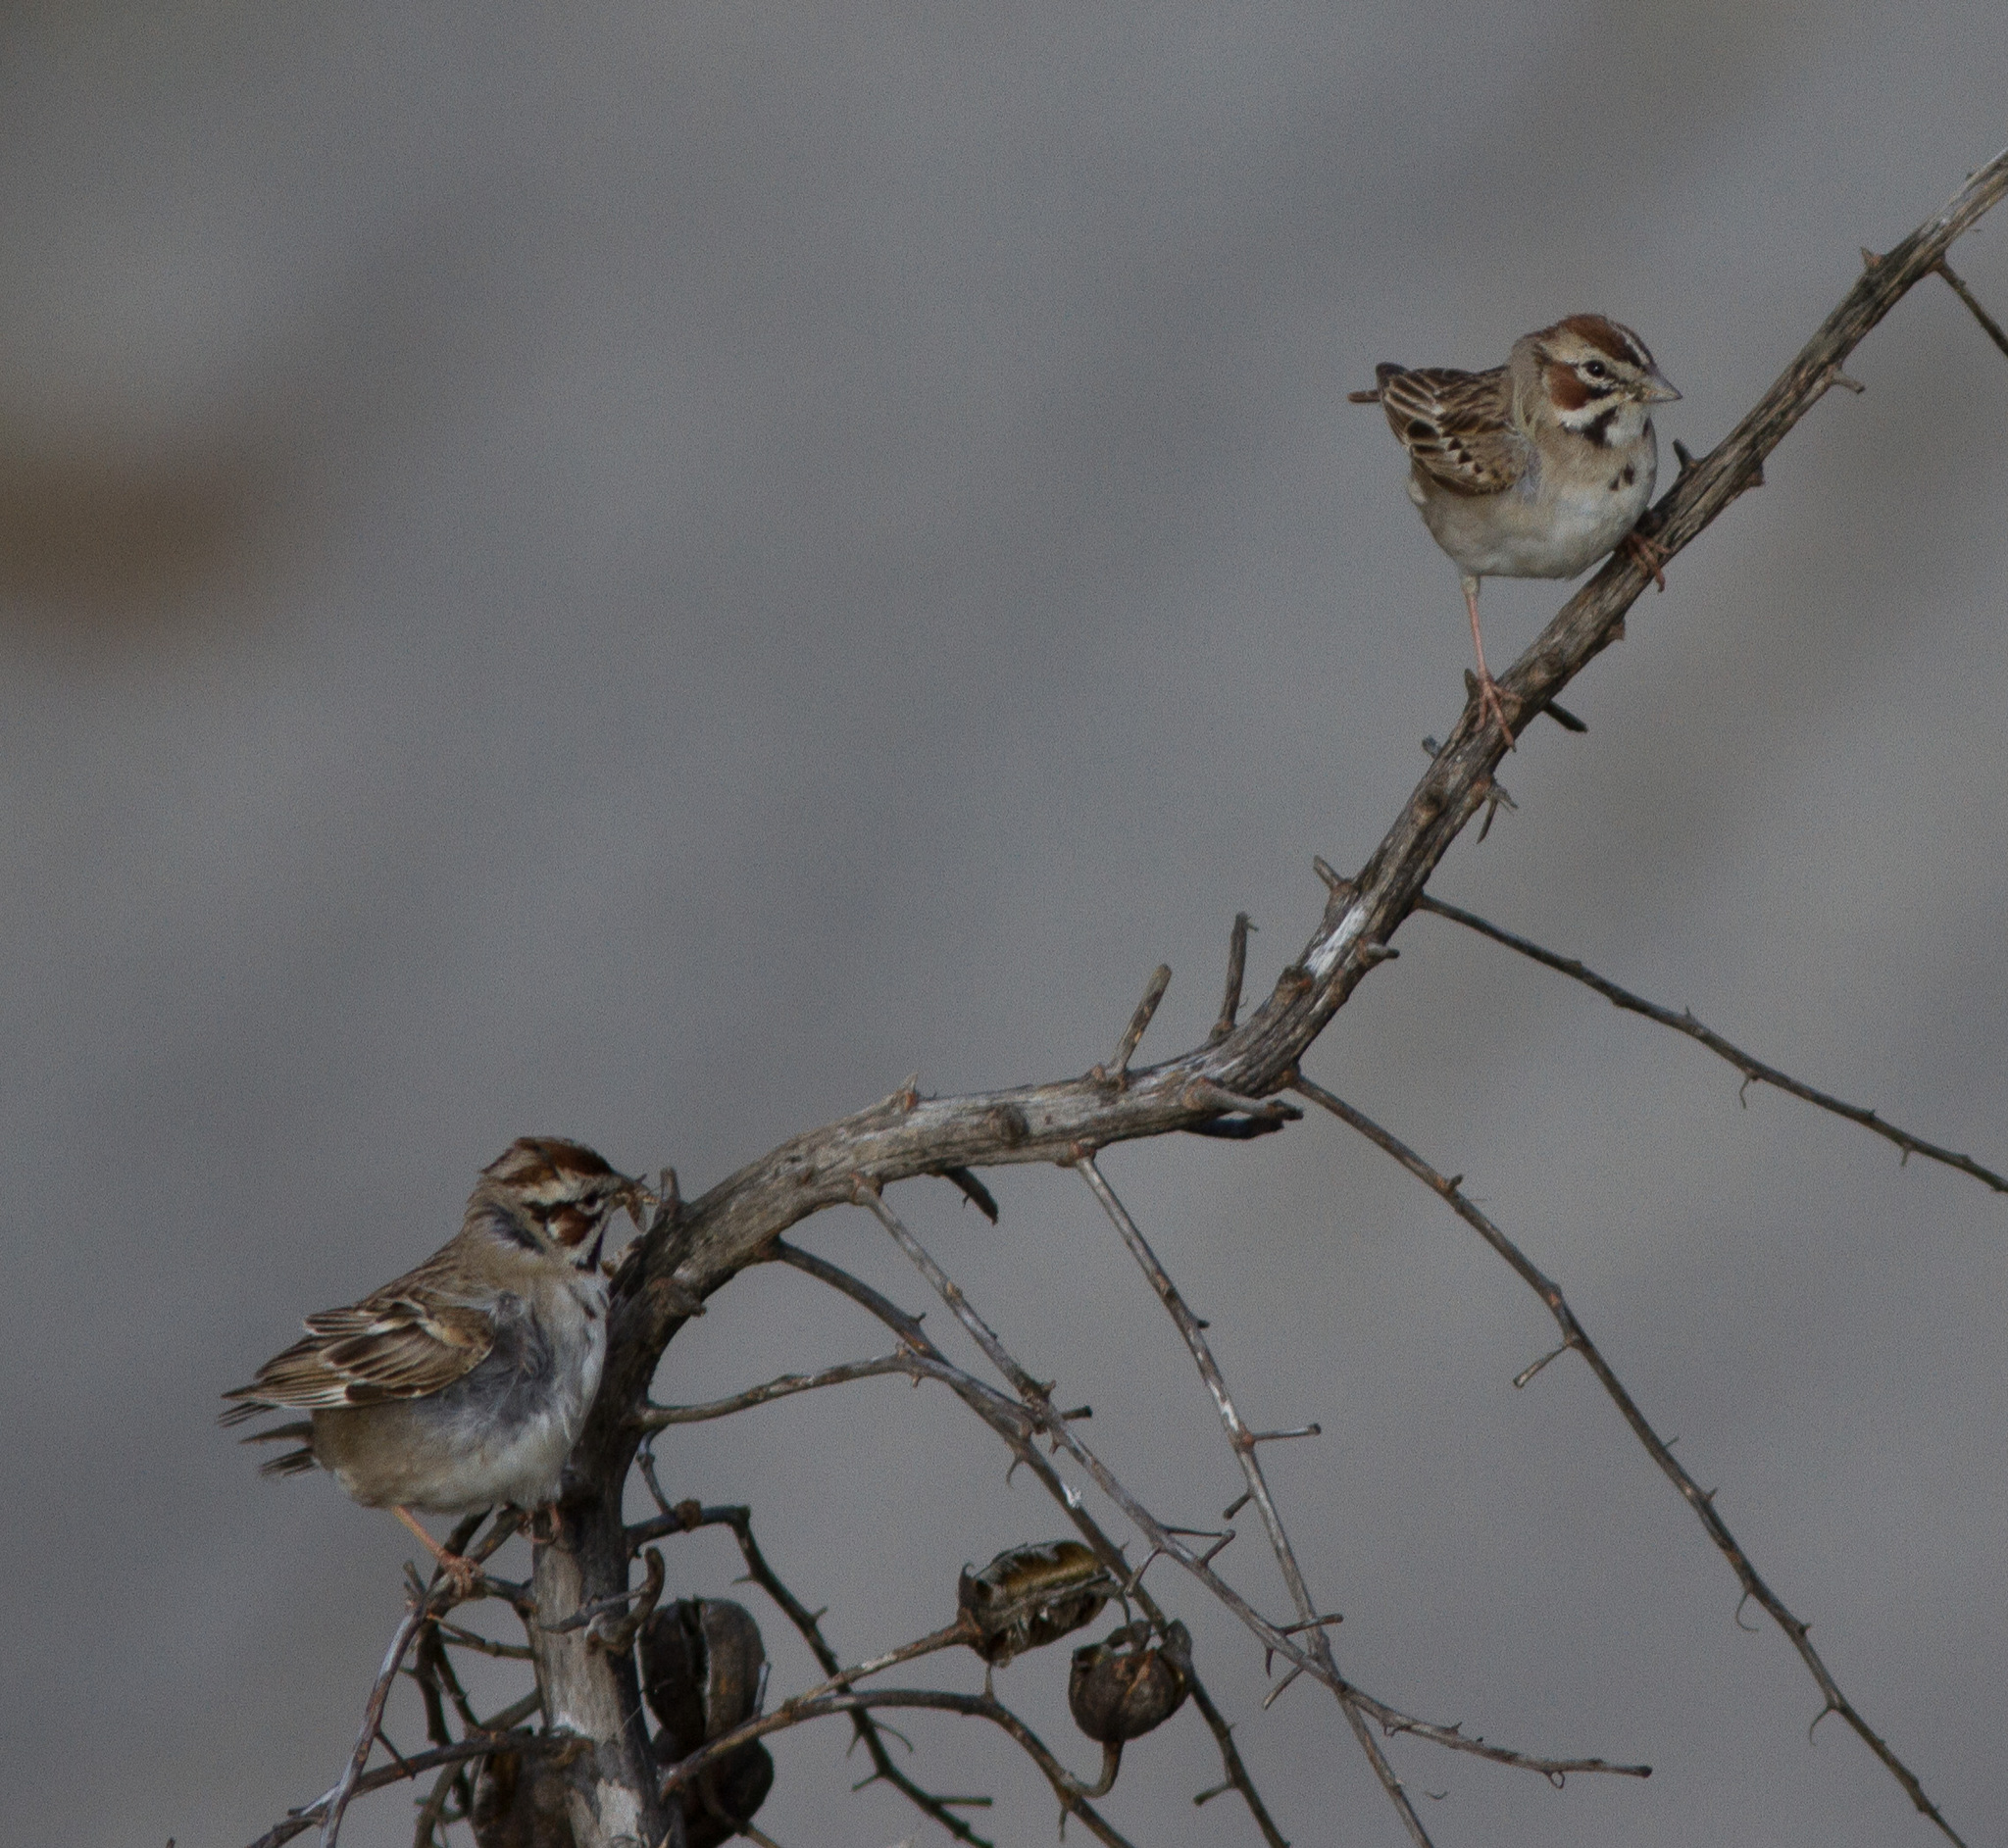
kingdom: Animalia
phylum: Chordata
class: Aves
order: Passeriformes
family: Passerellidae
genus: Chondestes
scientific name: Chondestes grammacus
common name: Lark sparrow
